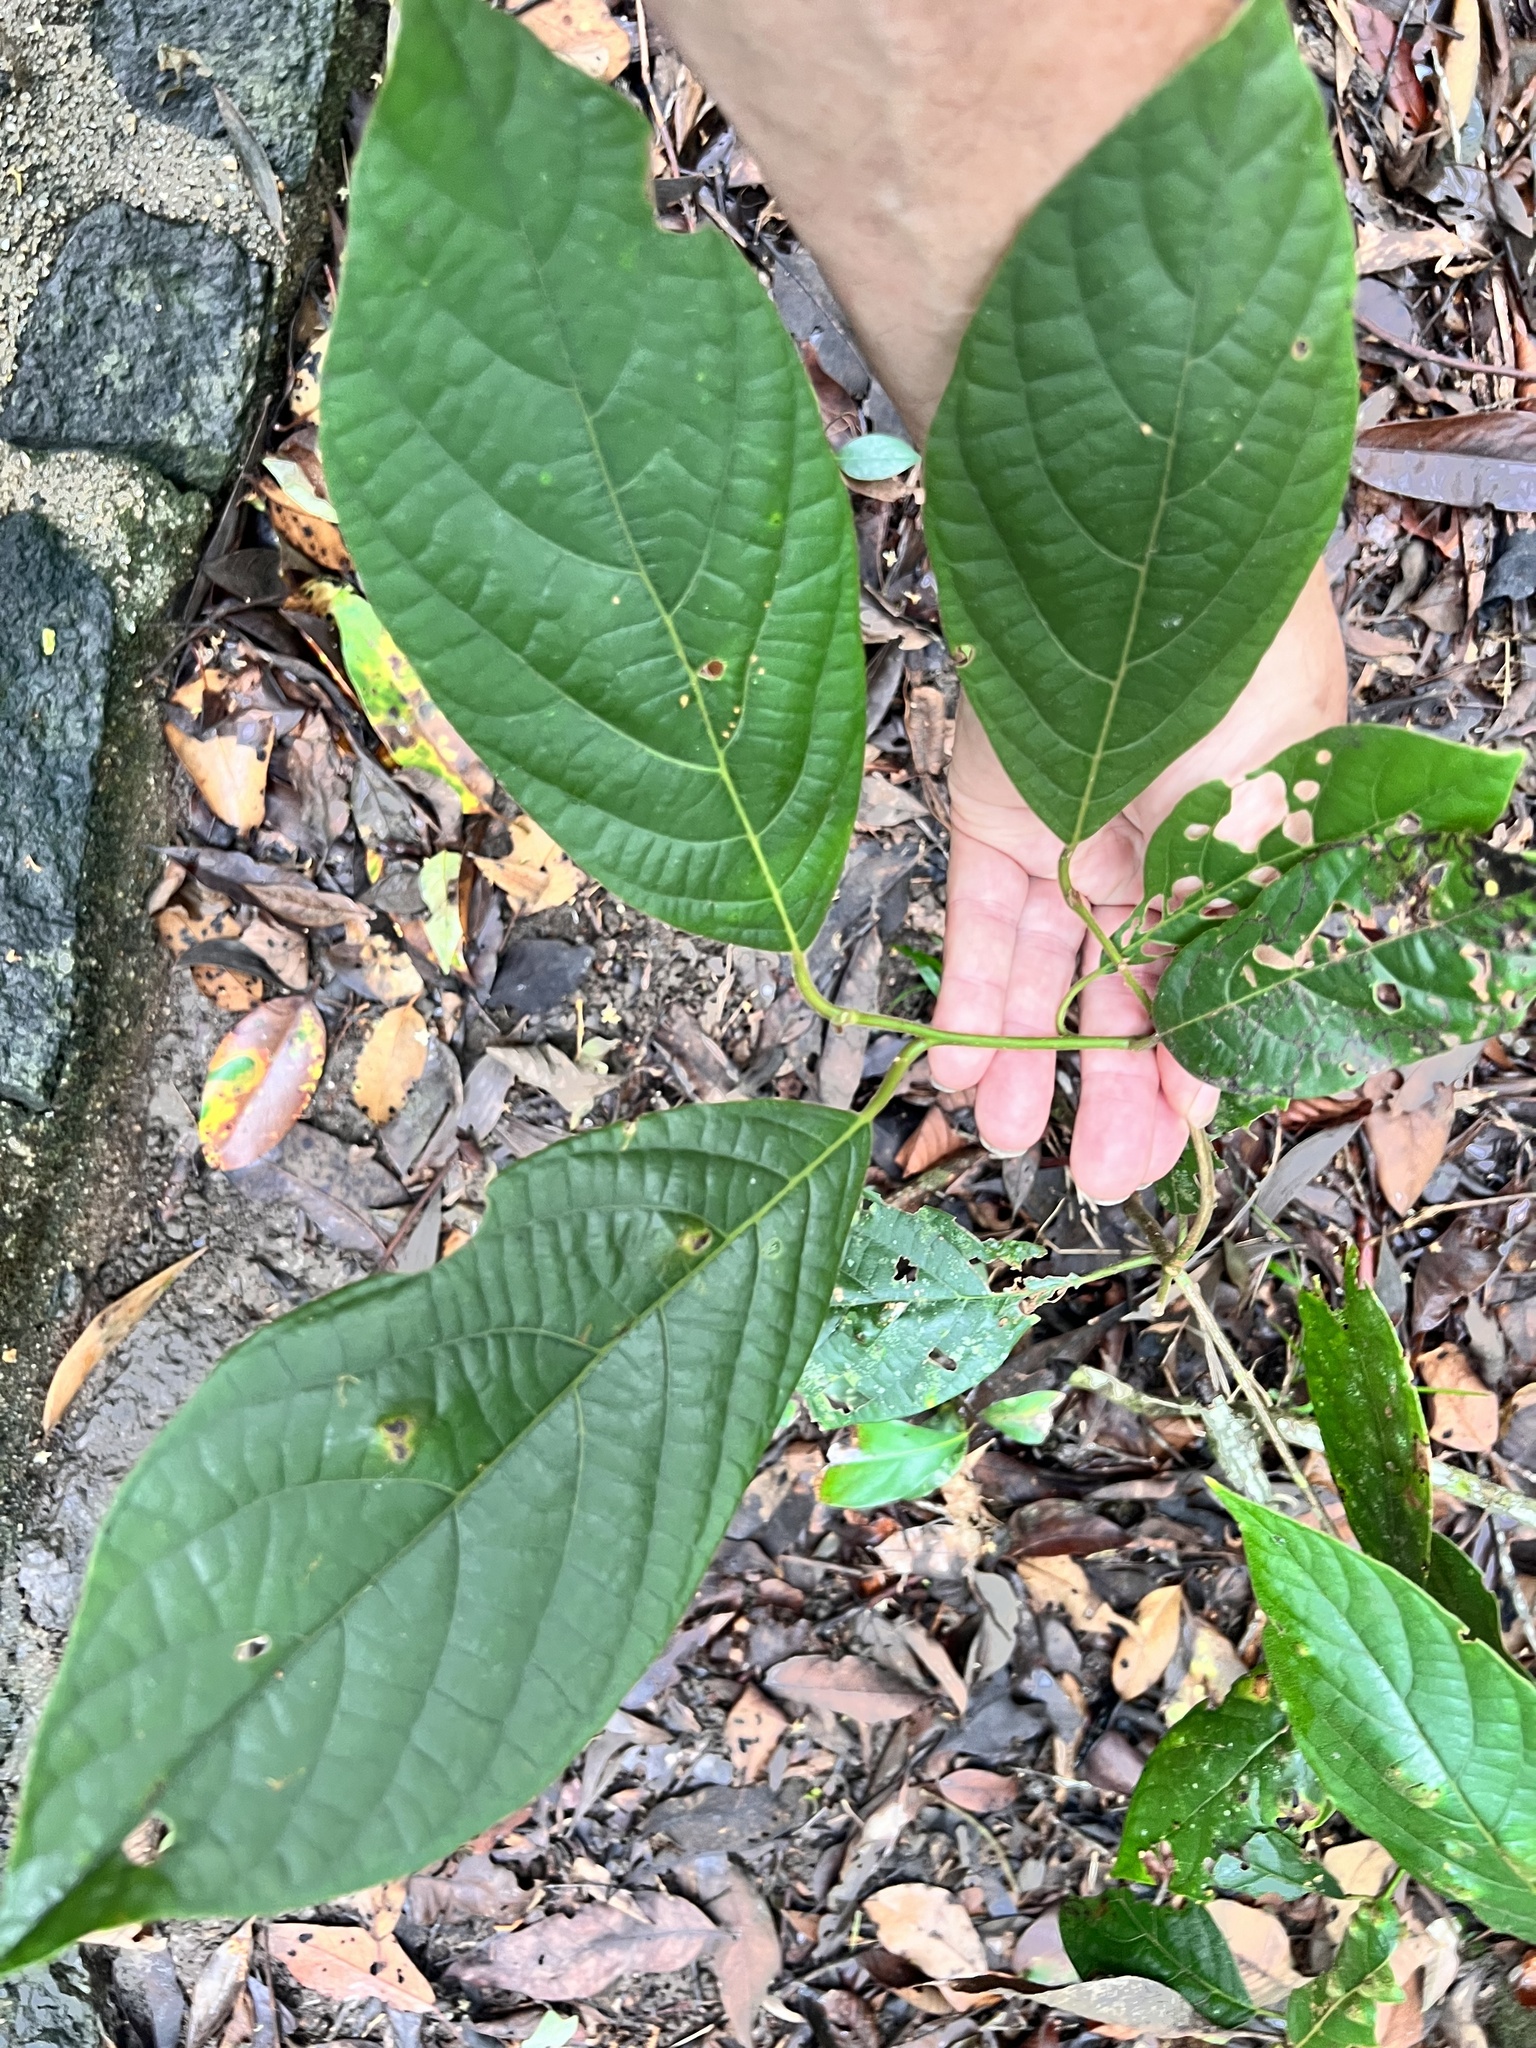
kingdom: Plantae
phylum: Tracheophyta
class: Magnoliopsida
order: Laurales
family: Lauraceae
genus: Litsea
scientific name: Litsea leefeana
